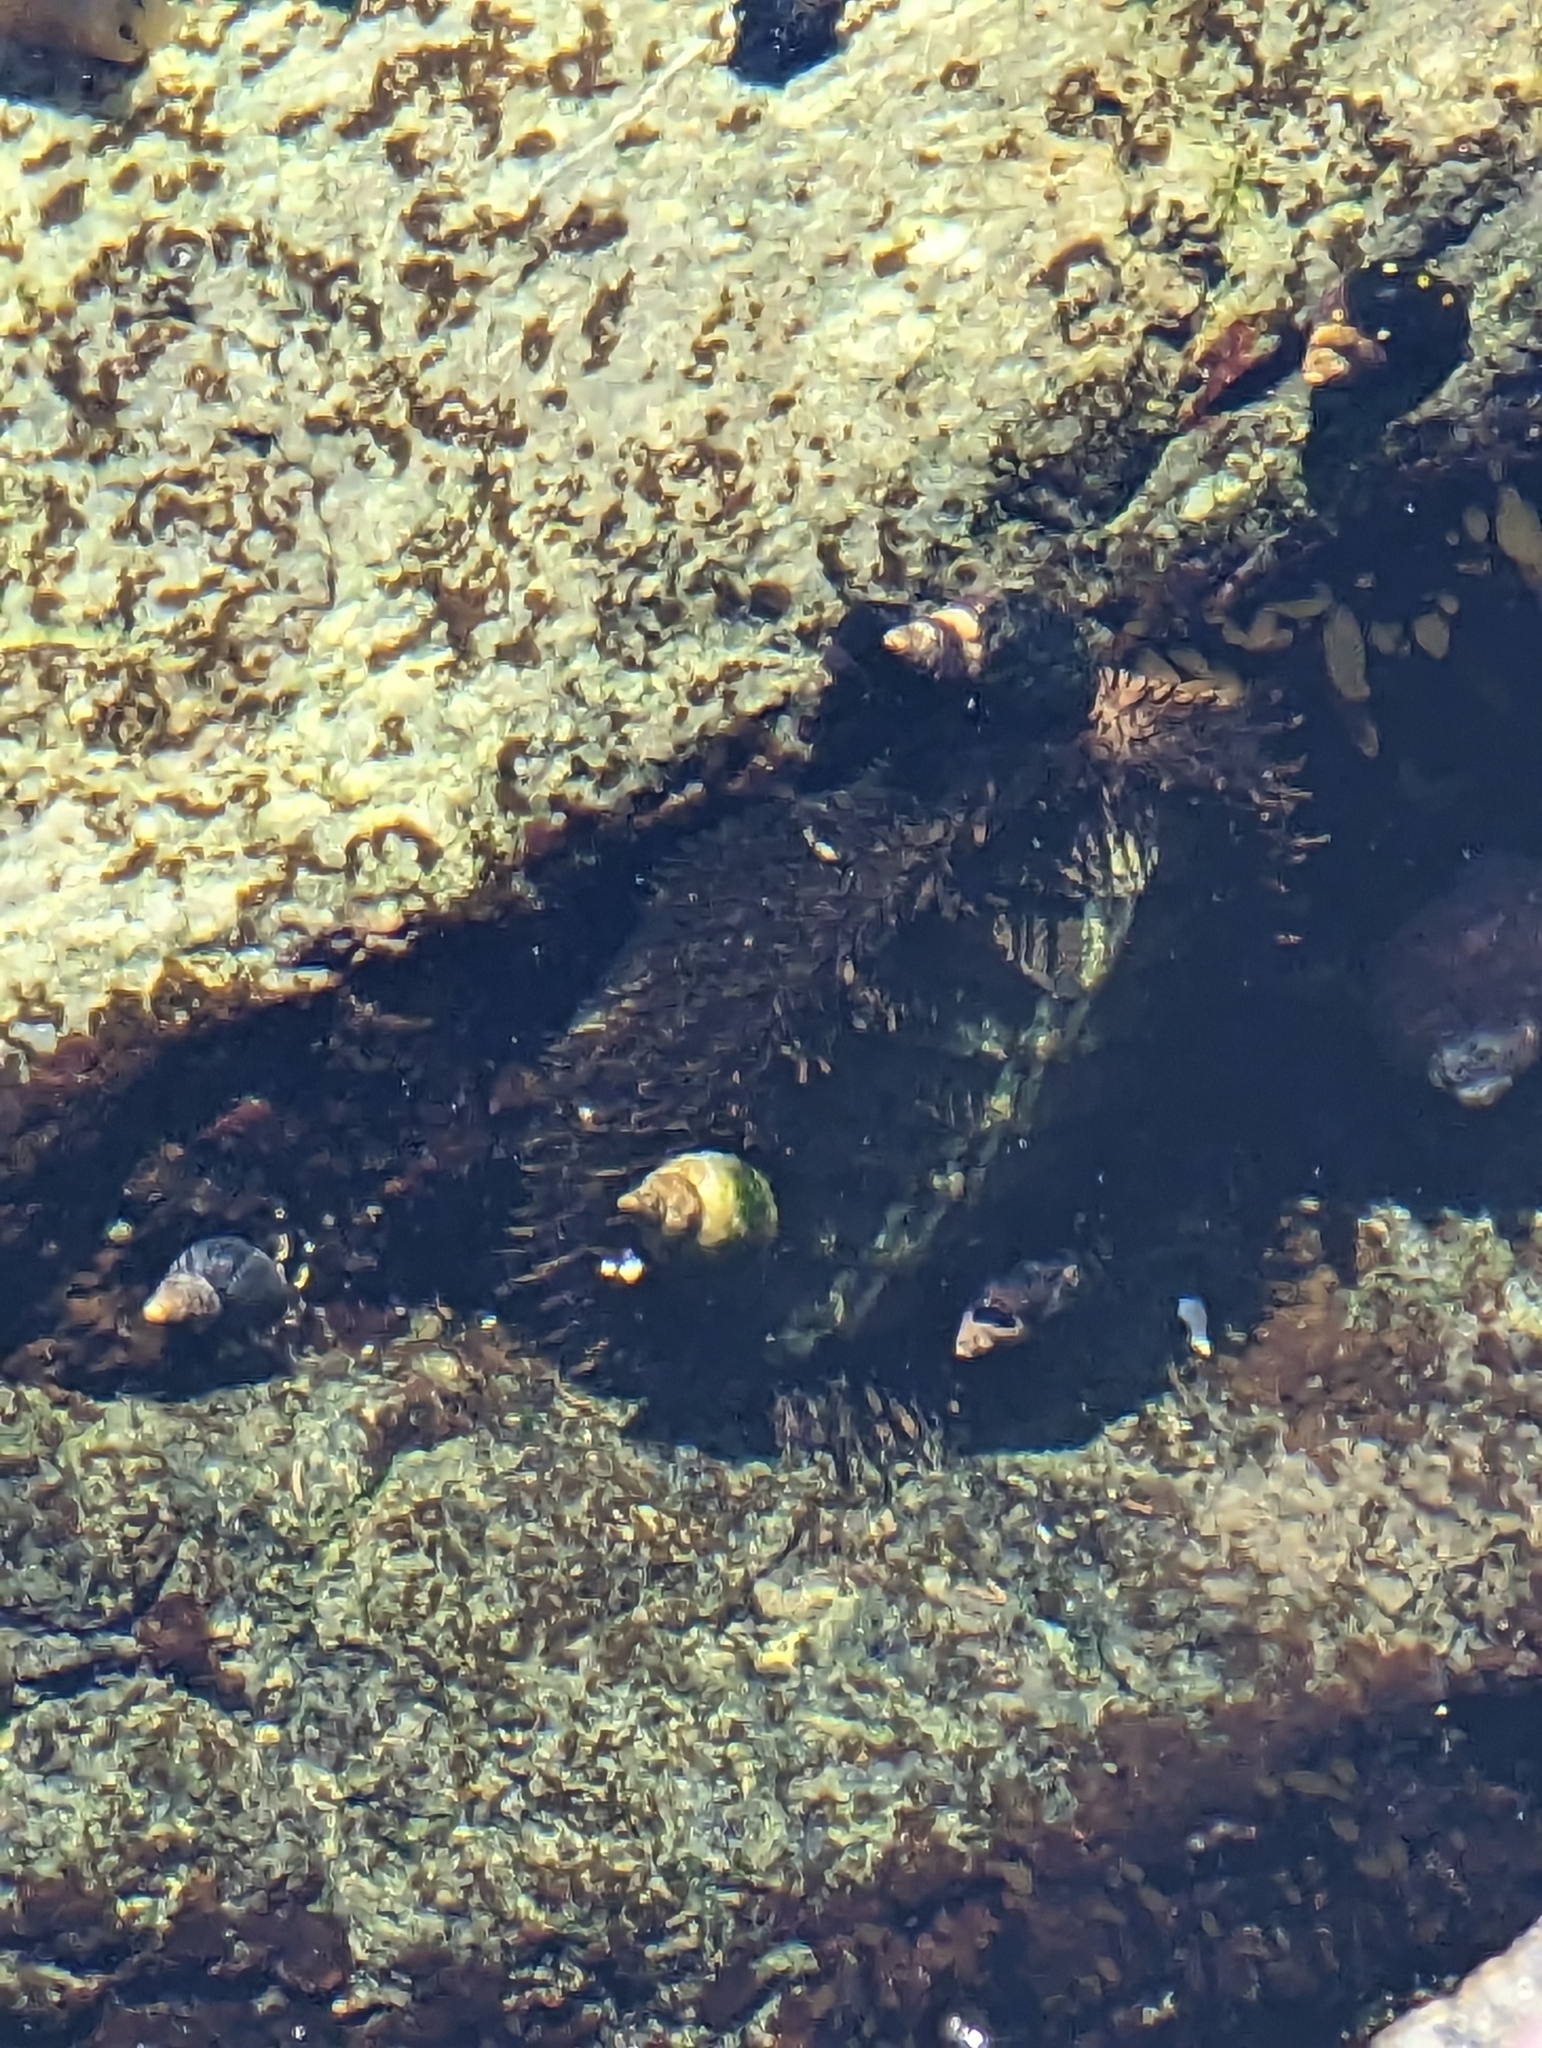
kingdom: Animalia
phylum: Mollusca
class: Polyplacophora
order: Chitonida
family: Mopaliidae
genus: Mopalia
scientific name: Mopalia muscosa
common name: Mossy chiton
